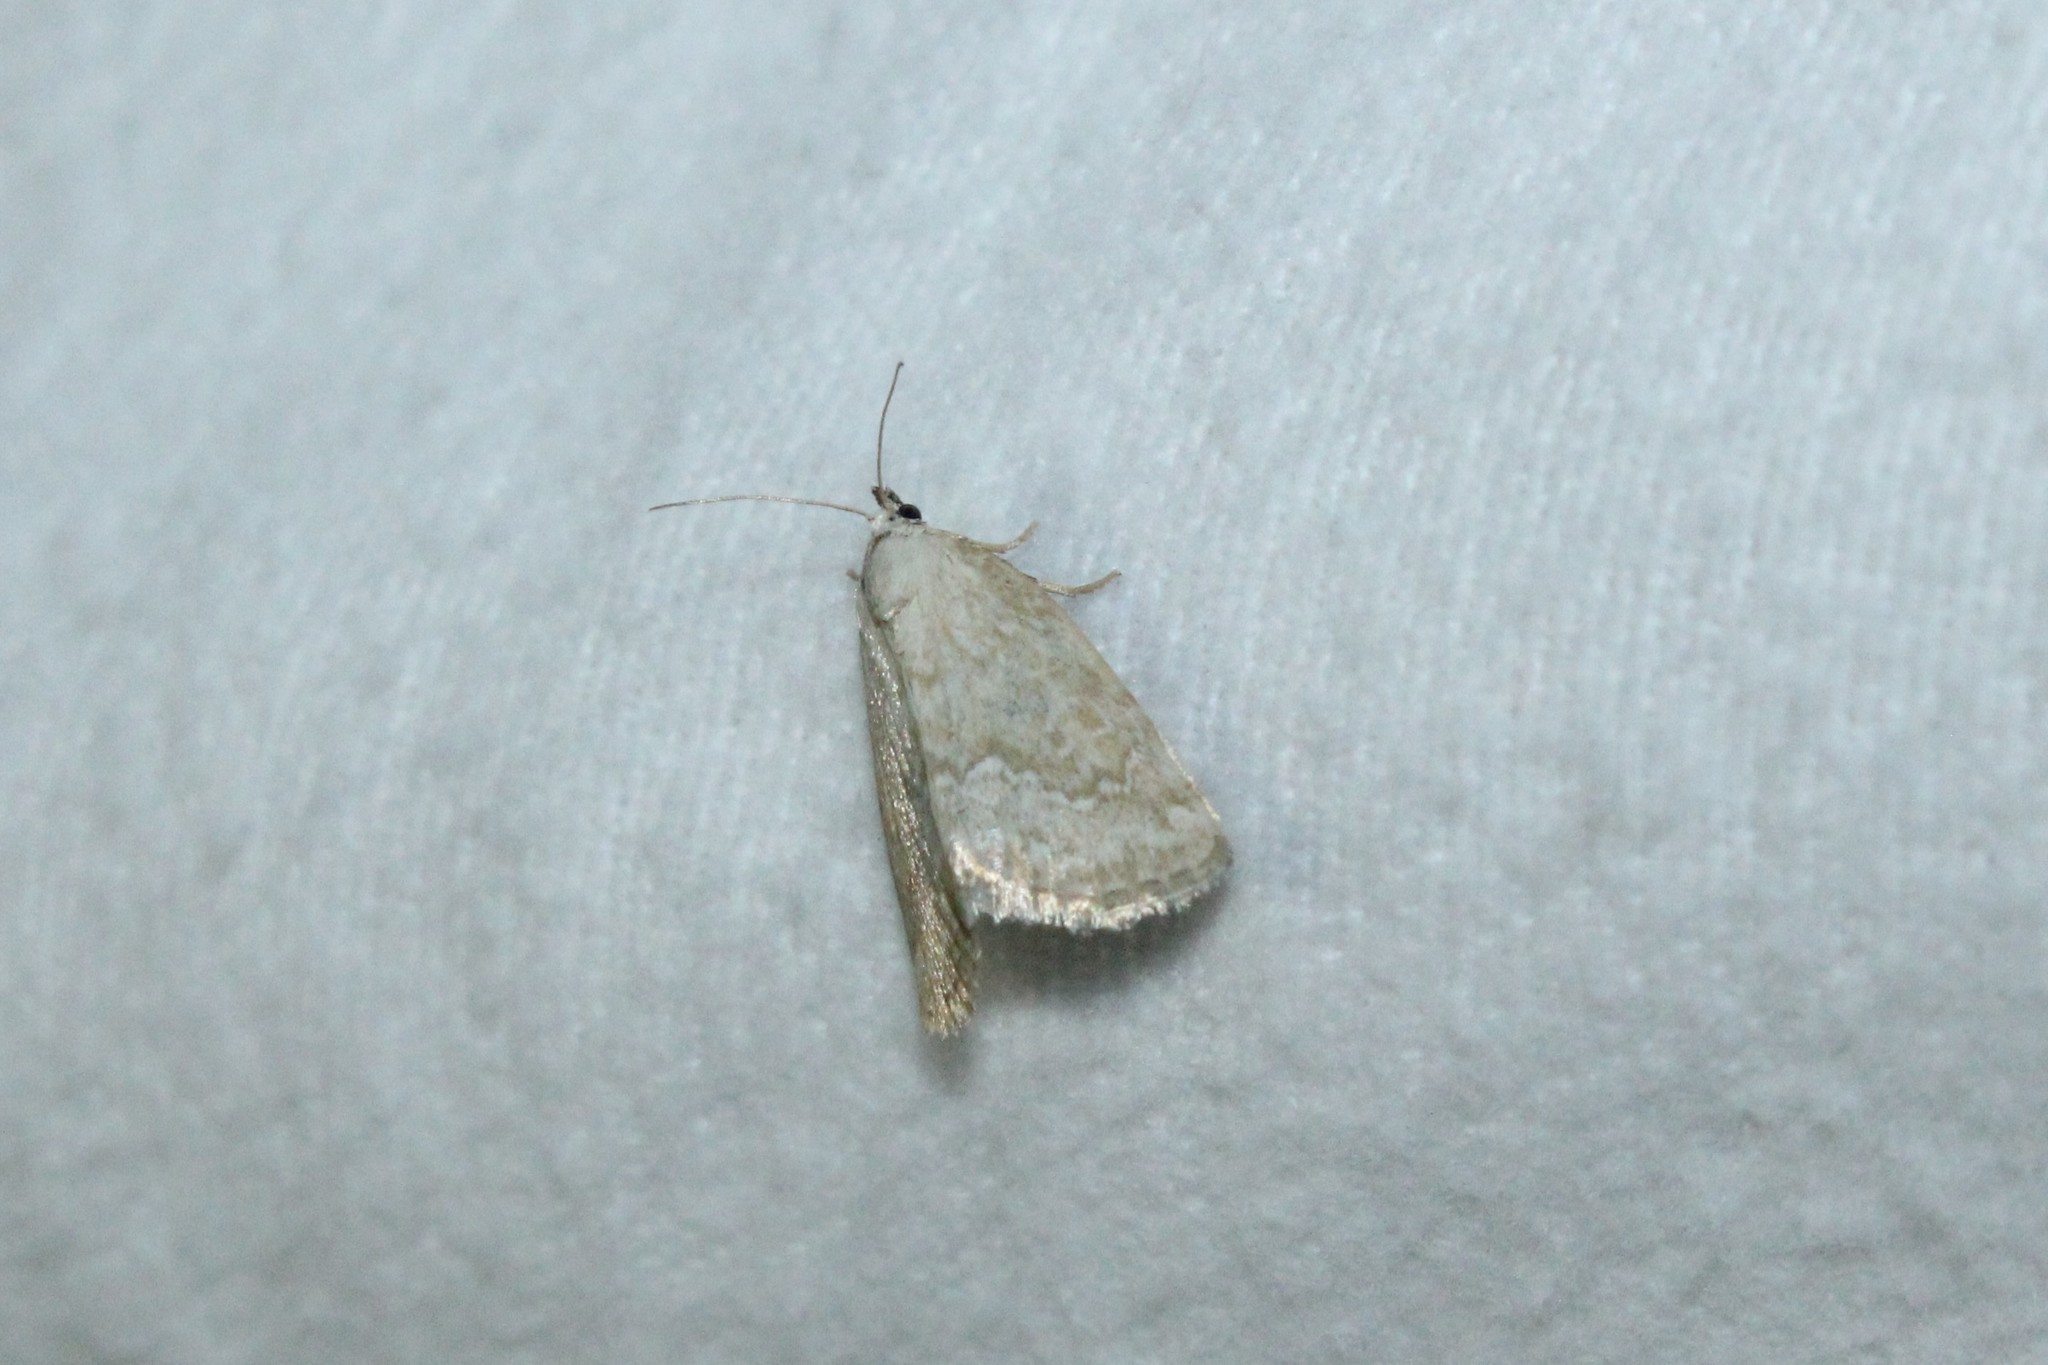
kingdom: Animalia
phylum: Arthropoda
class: Insecta
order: Lepidoptera
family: Noctuidae
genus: Protodeltote
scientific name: Protodeltote albidula
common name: Pale glyph
